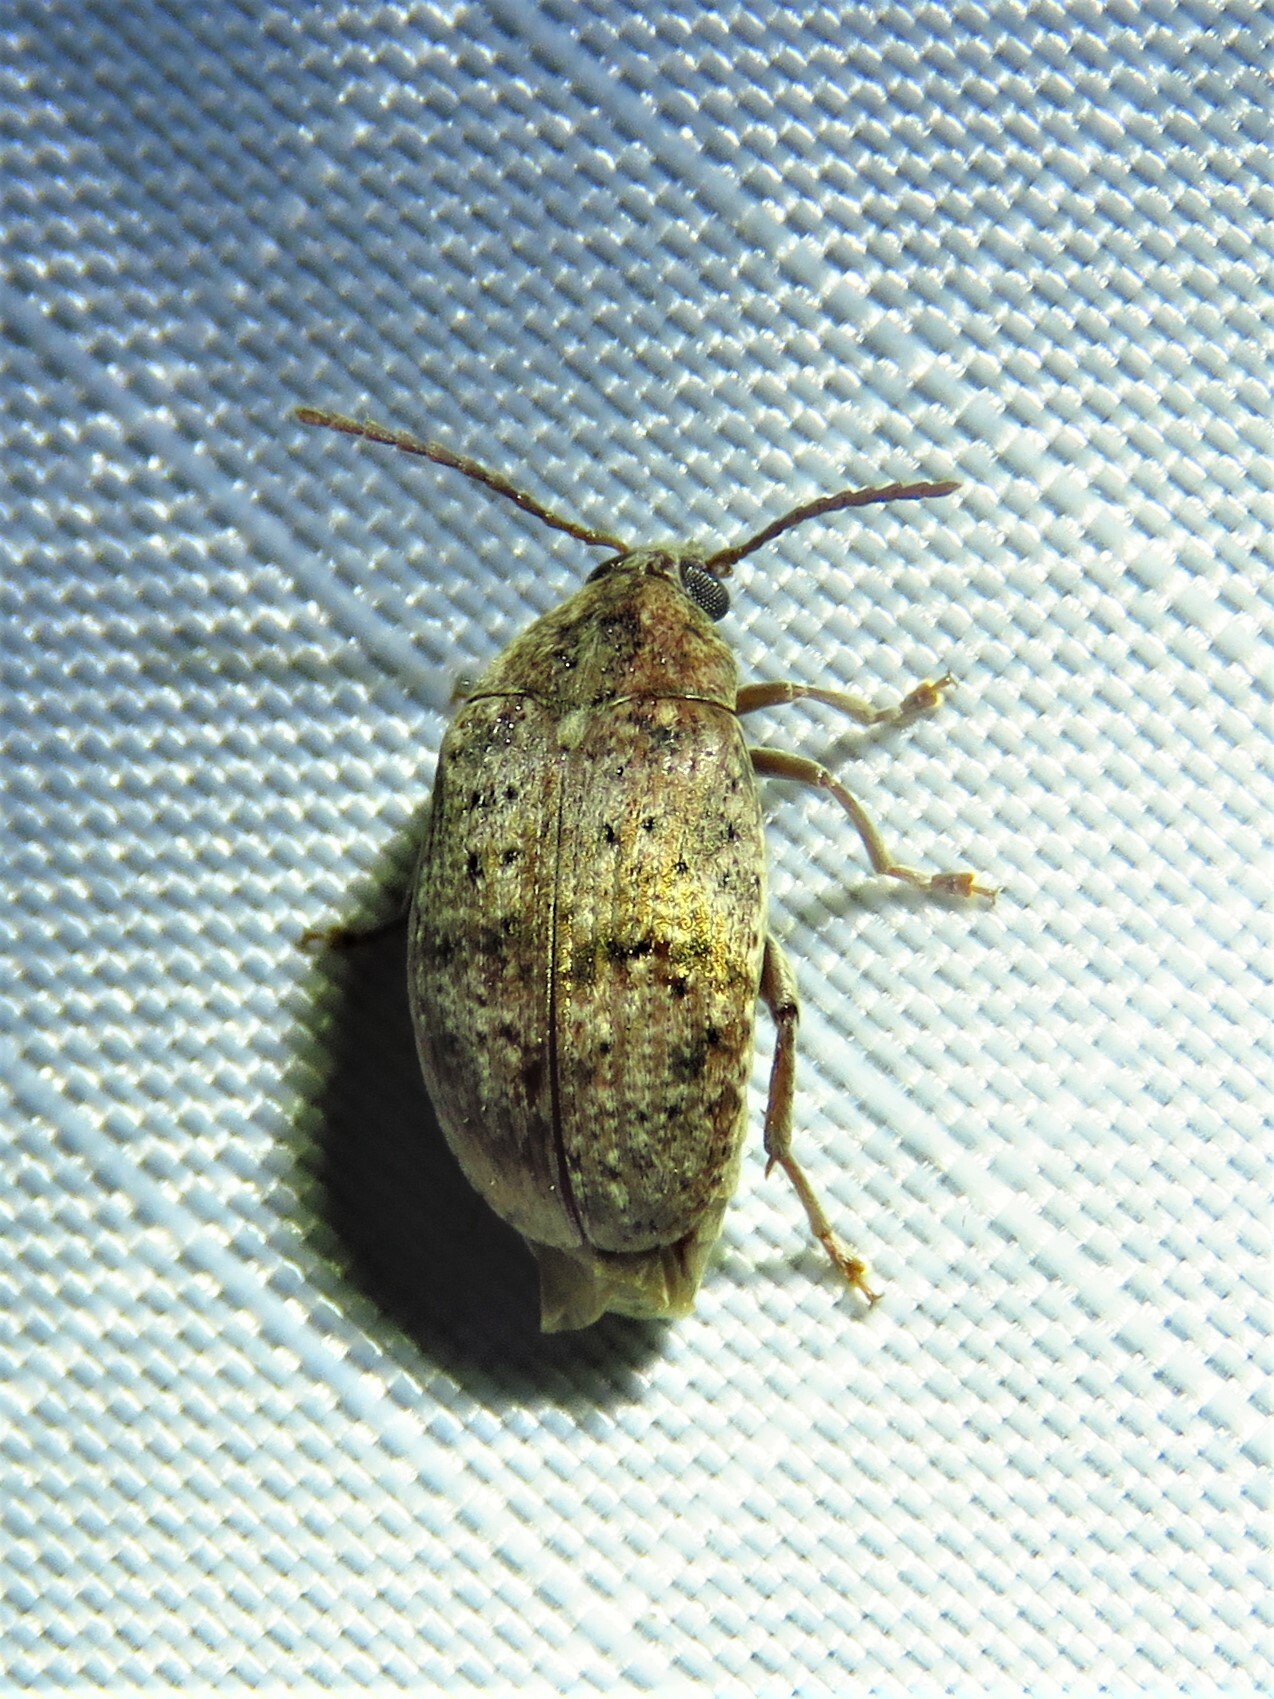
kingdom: Animalia
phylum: Arthropoda
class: Insecta
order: Coleoptera
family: Chrysomelidae
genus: Amblycerus
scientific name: Amblycerus robiniae
